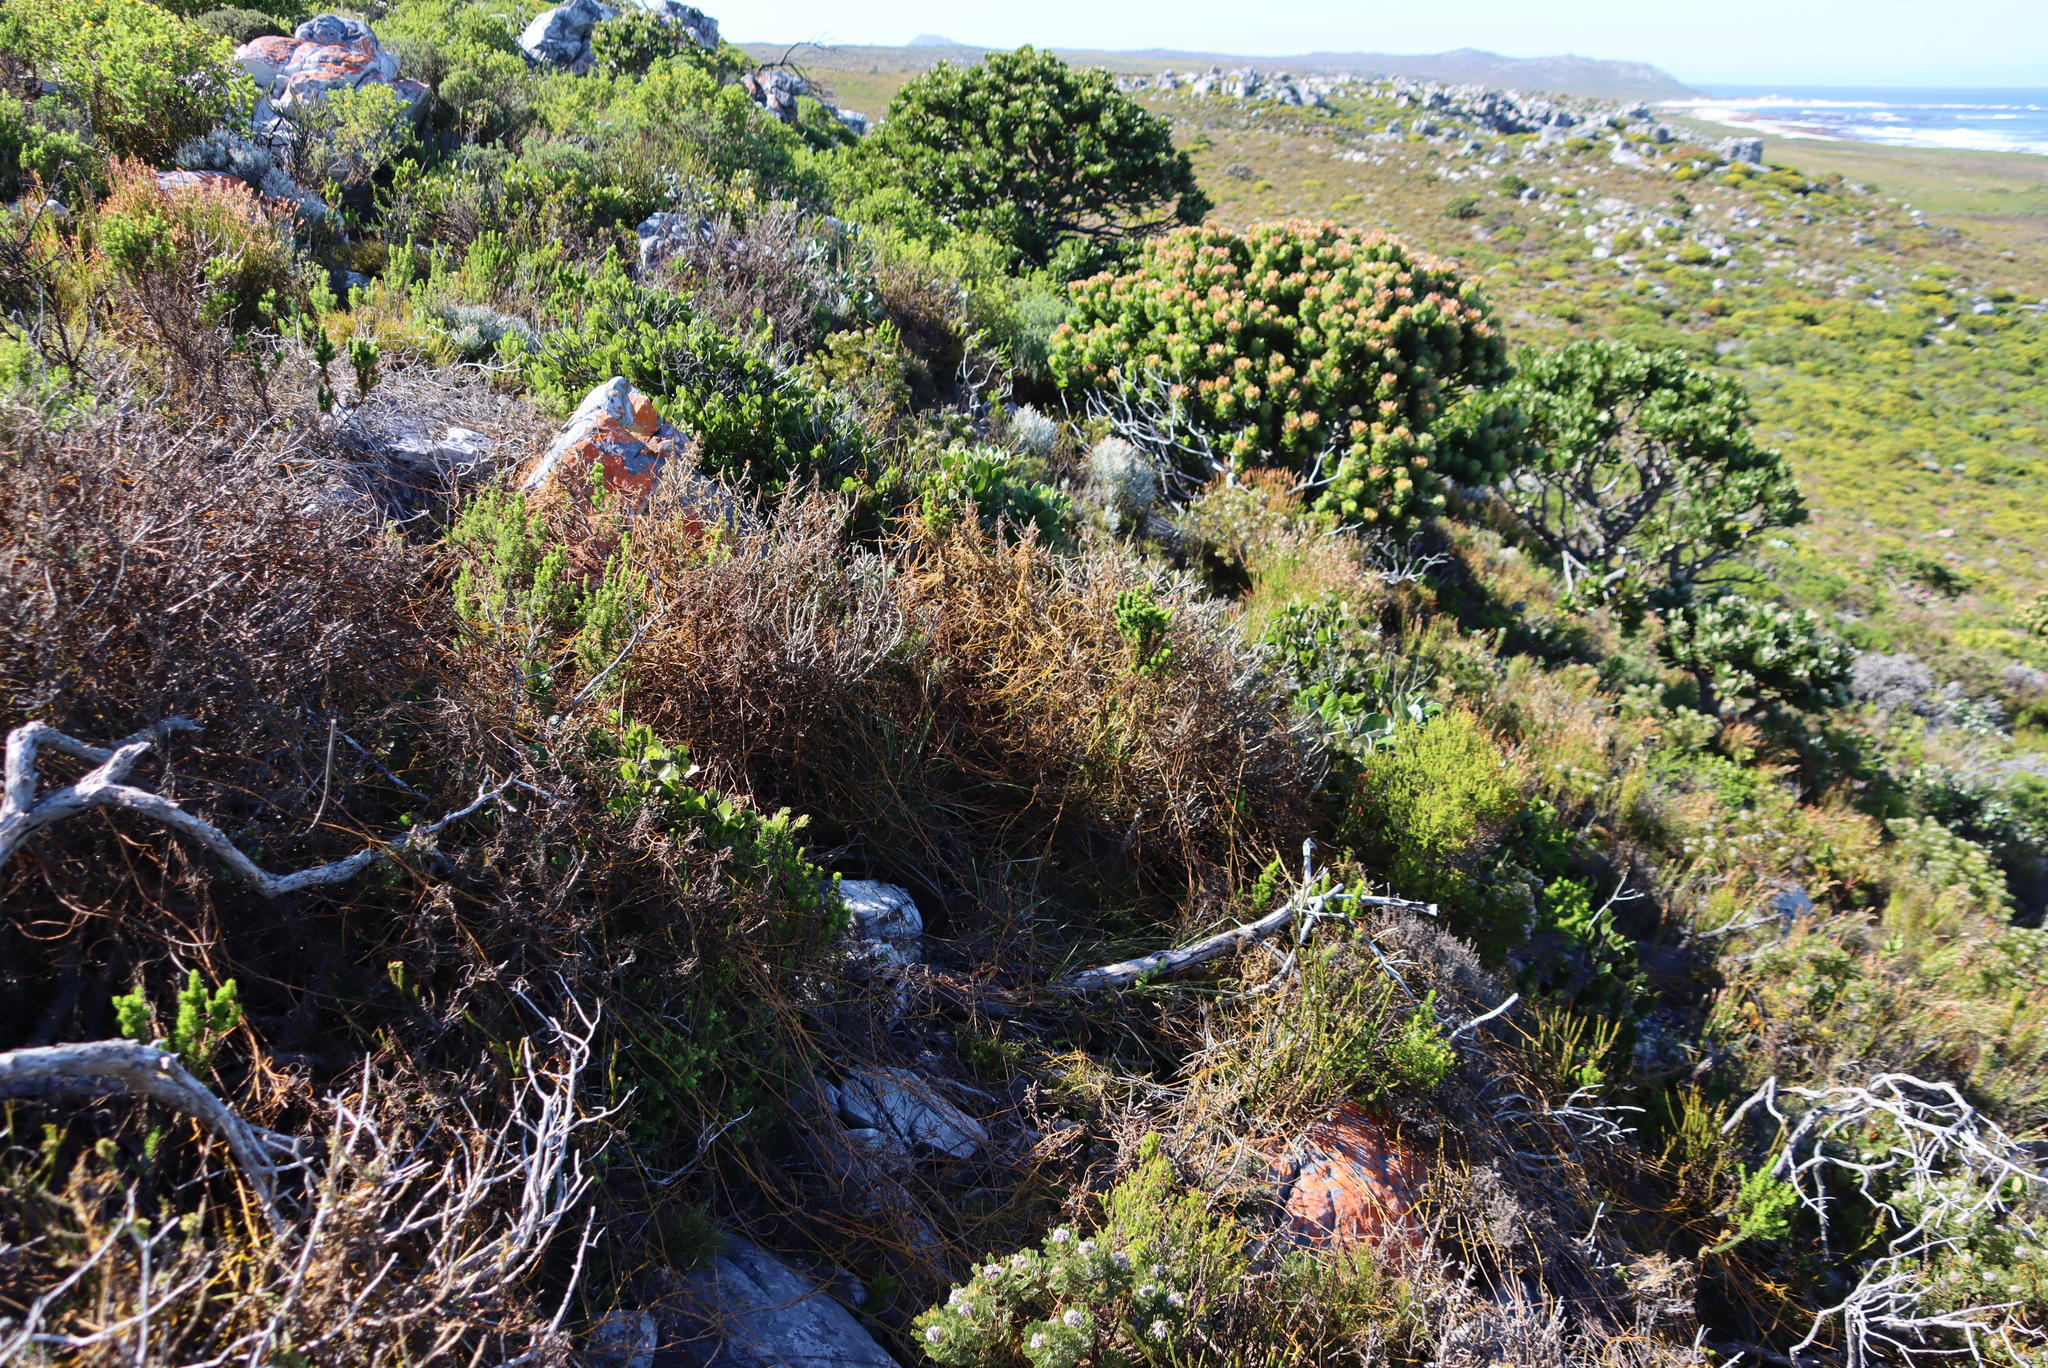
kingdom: Plantae
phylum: Tracheophyta
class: Magnoliopsida
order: Laurales
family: Lauraceae
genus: Cassytha
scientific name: Cassytha ciliolata
